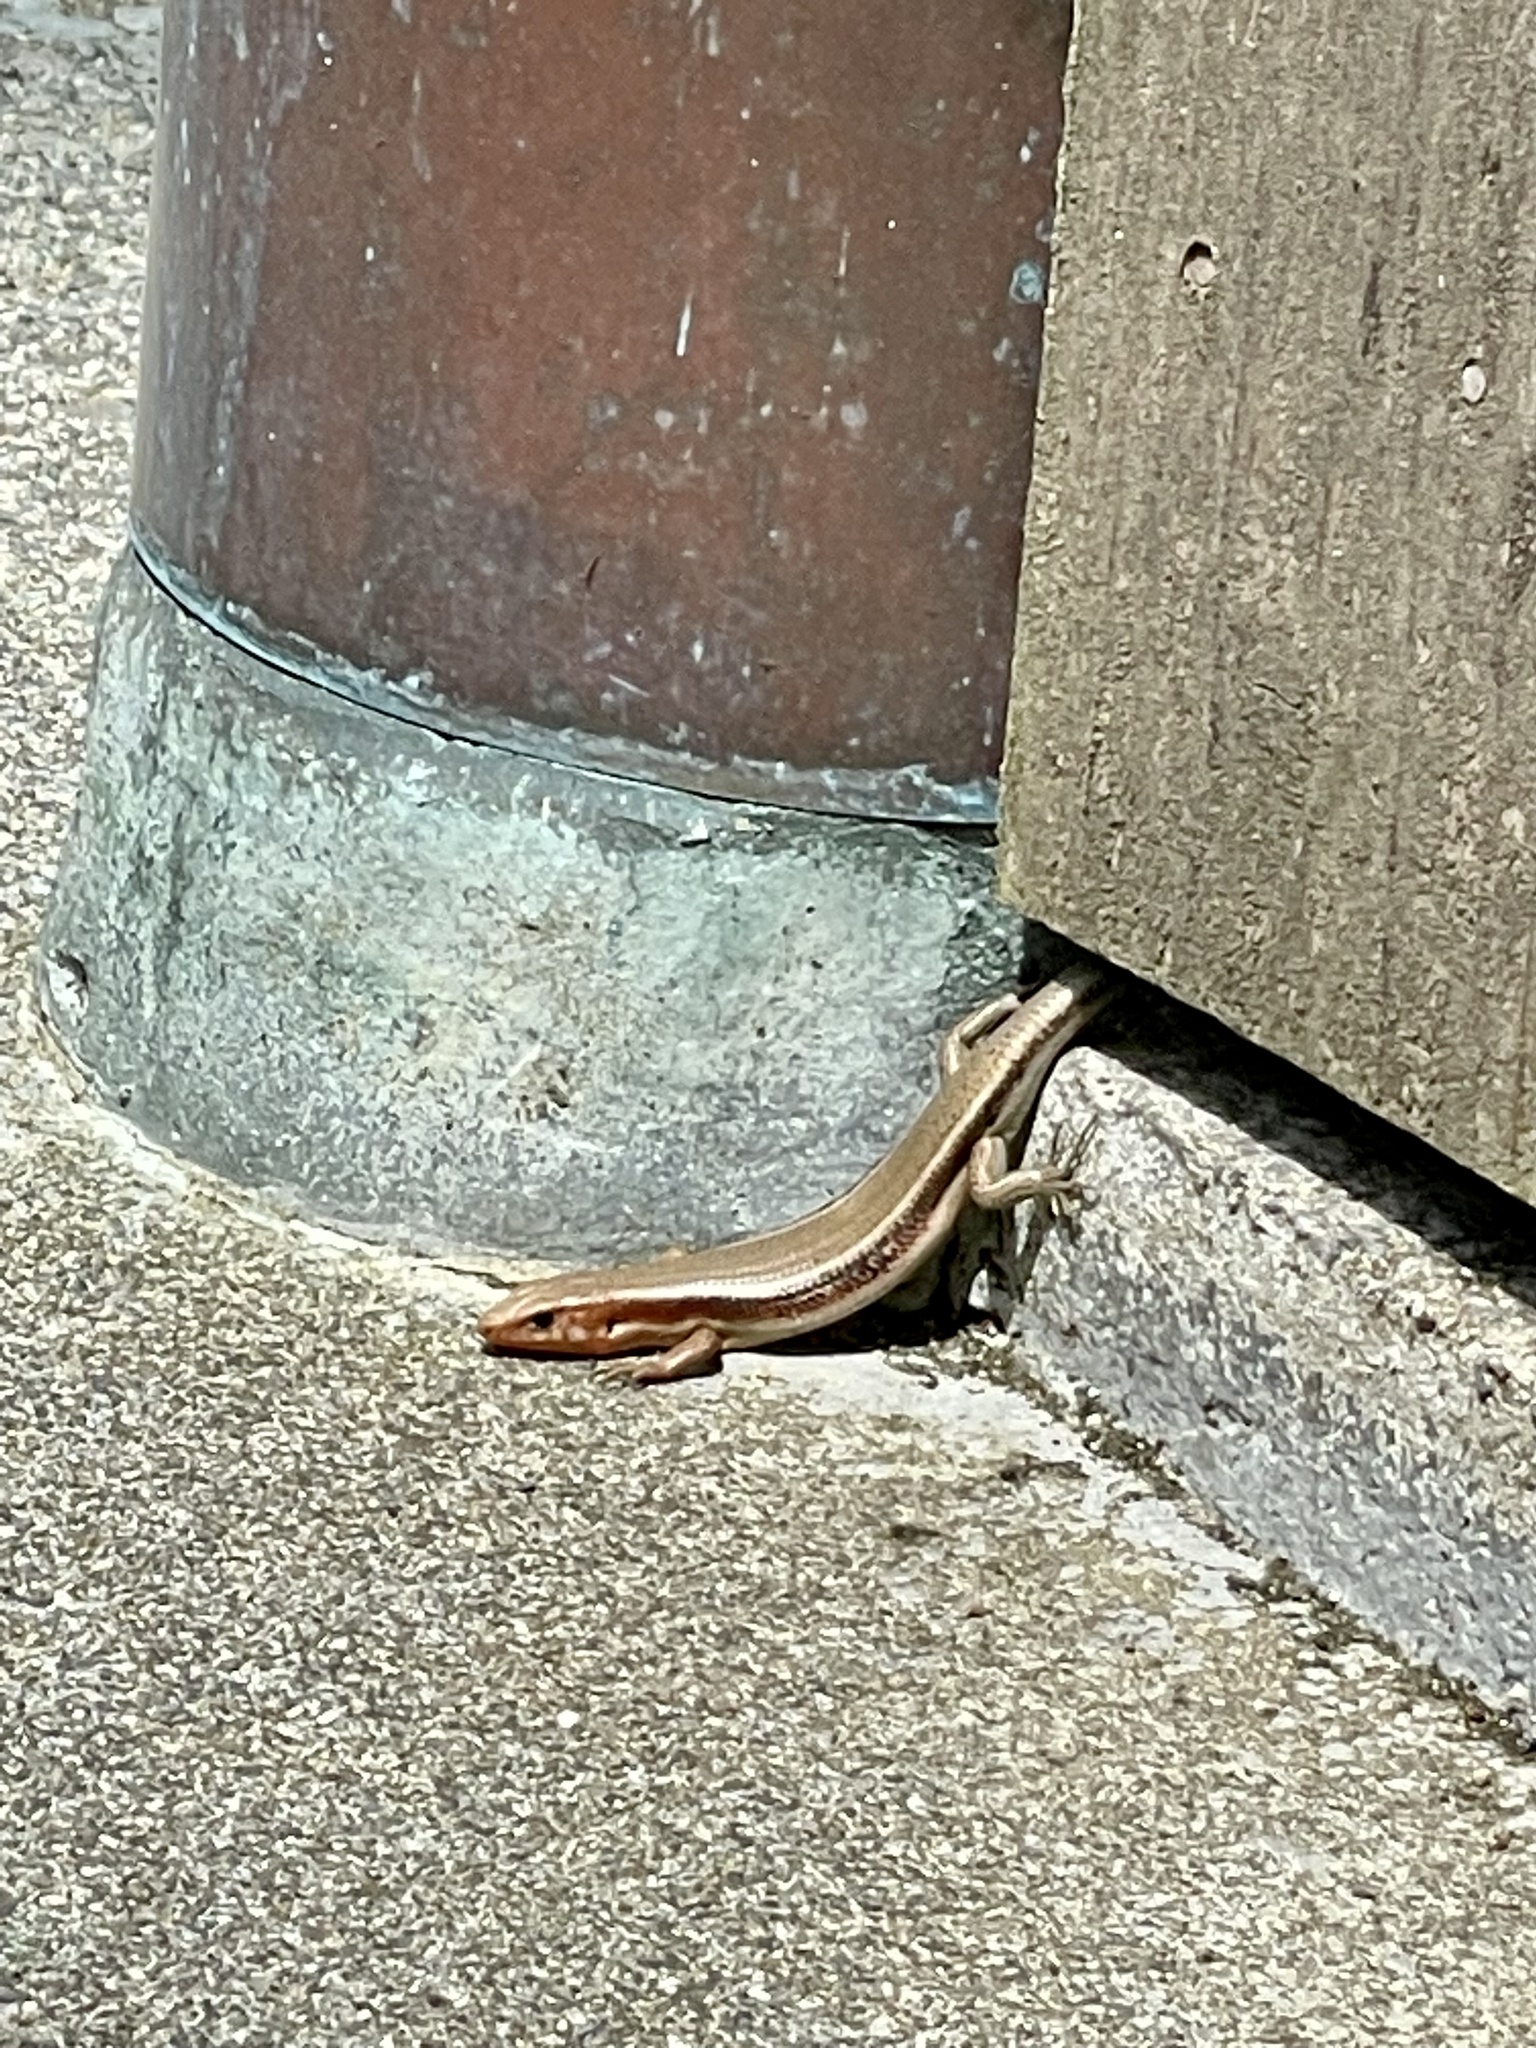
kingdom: Animalia
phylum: Chordata
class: Squamata
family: Scincidae
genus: Plestiodon
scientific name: Plestiodon japonicus
